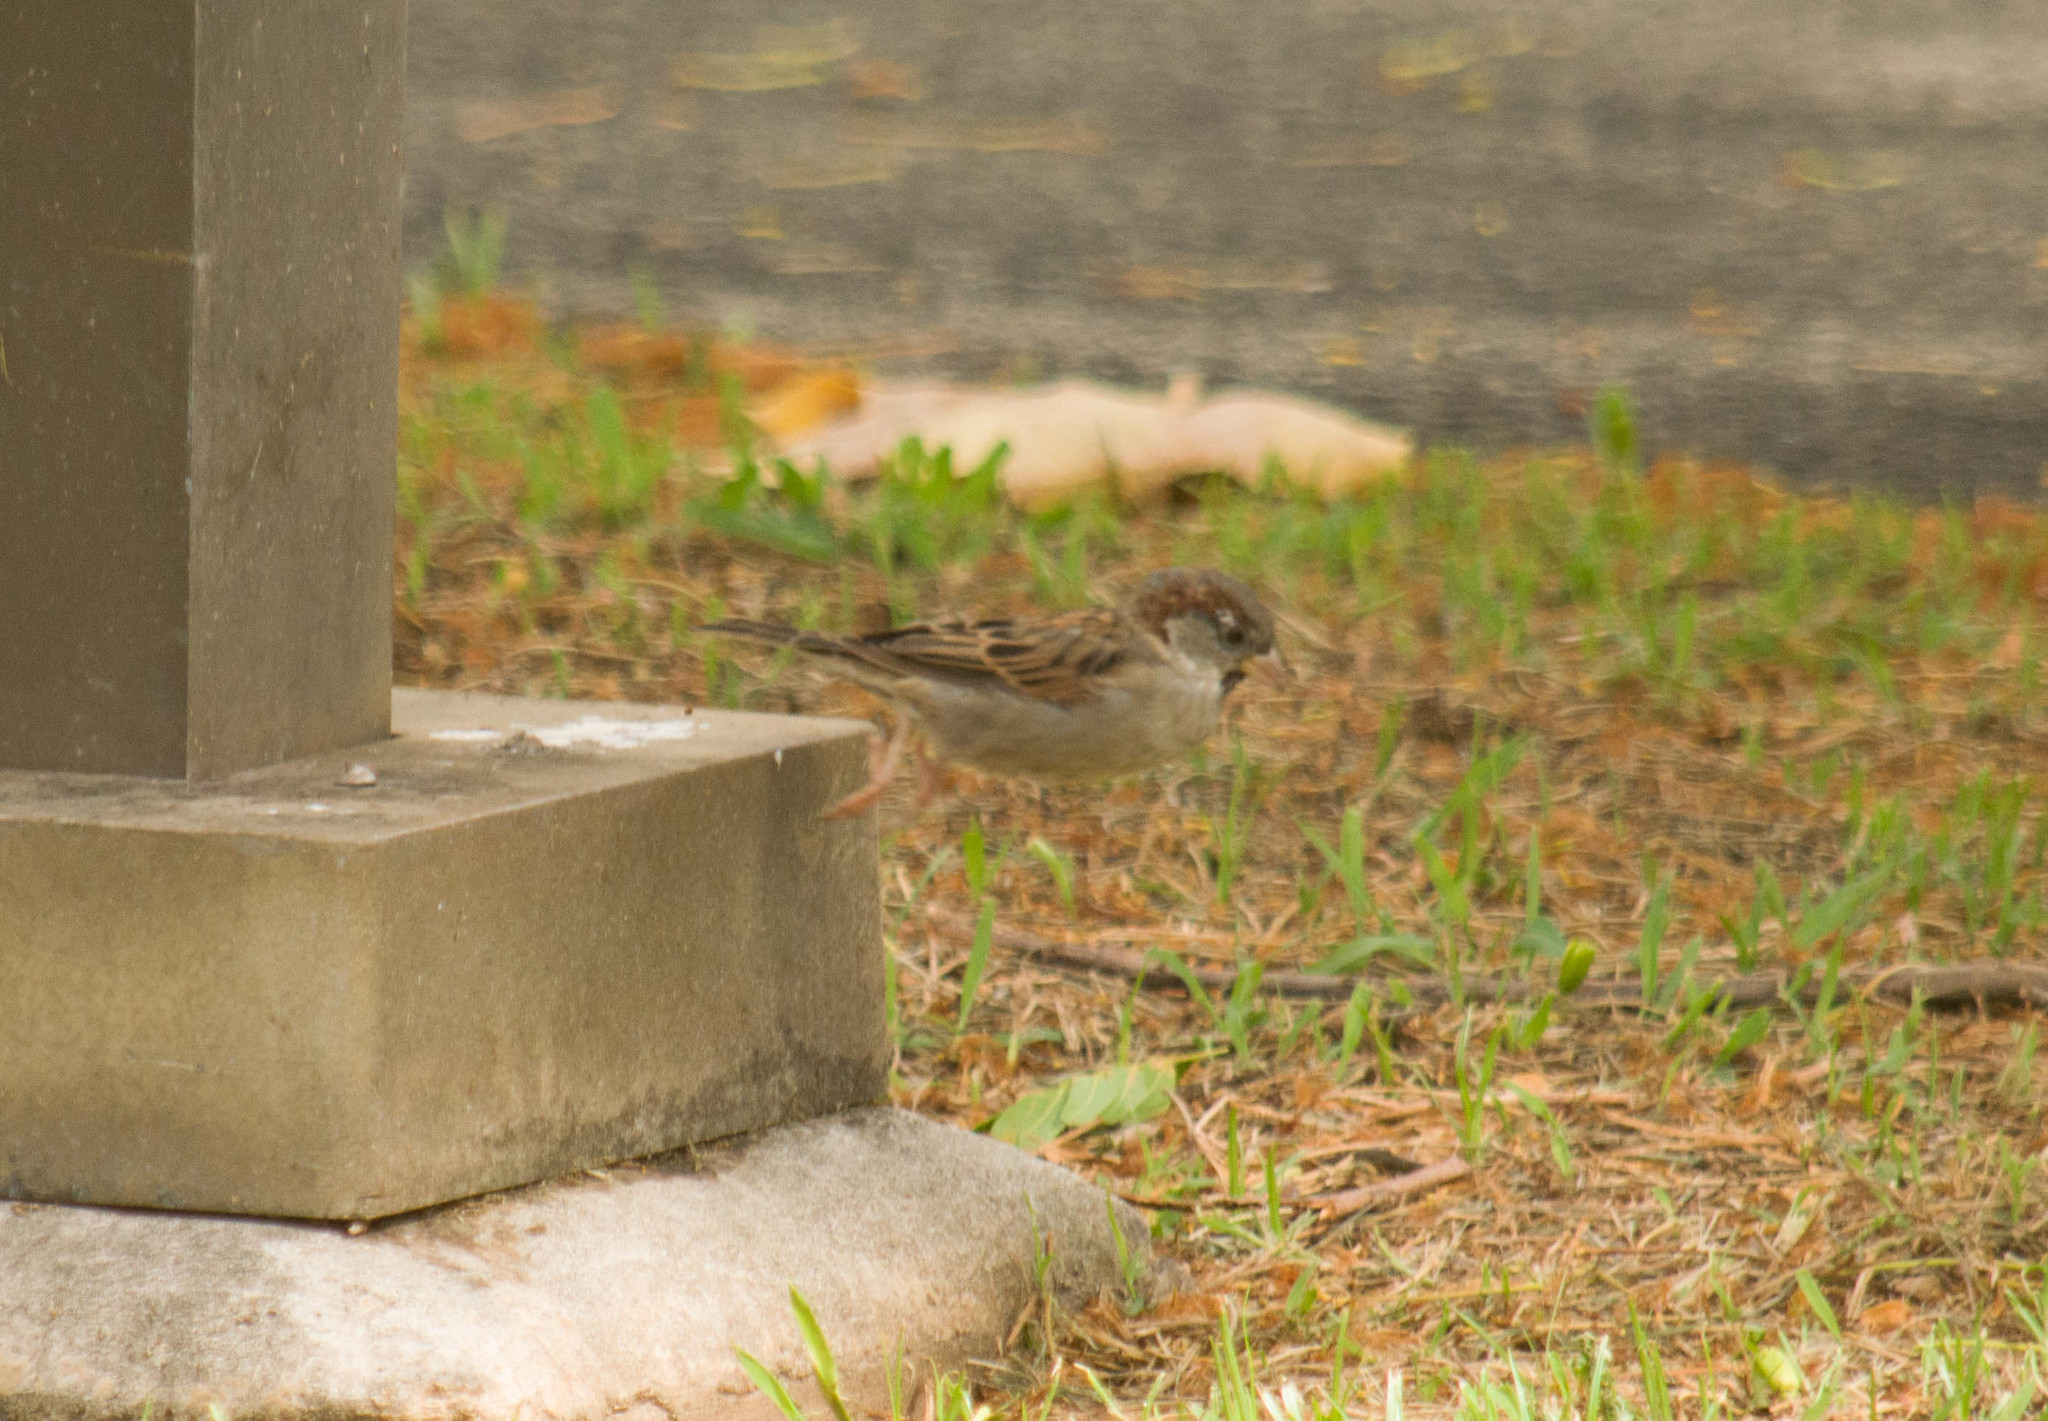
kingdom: Animalia
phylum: Chordata
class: Aves
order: Passeriformes
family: Passeridae
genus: Passer
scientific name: Passer domesticus
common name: House sparrow
